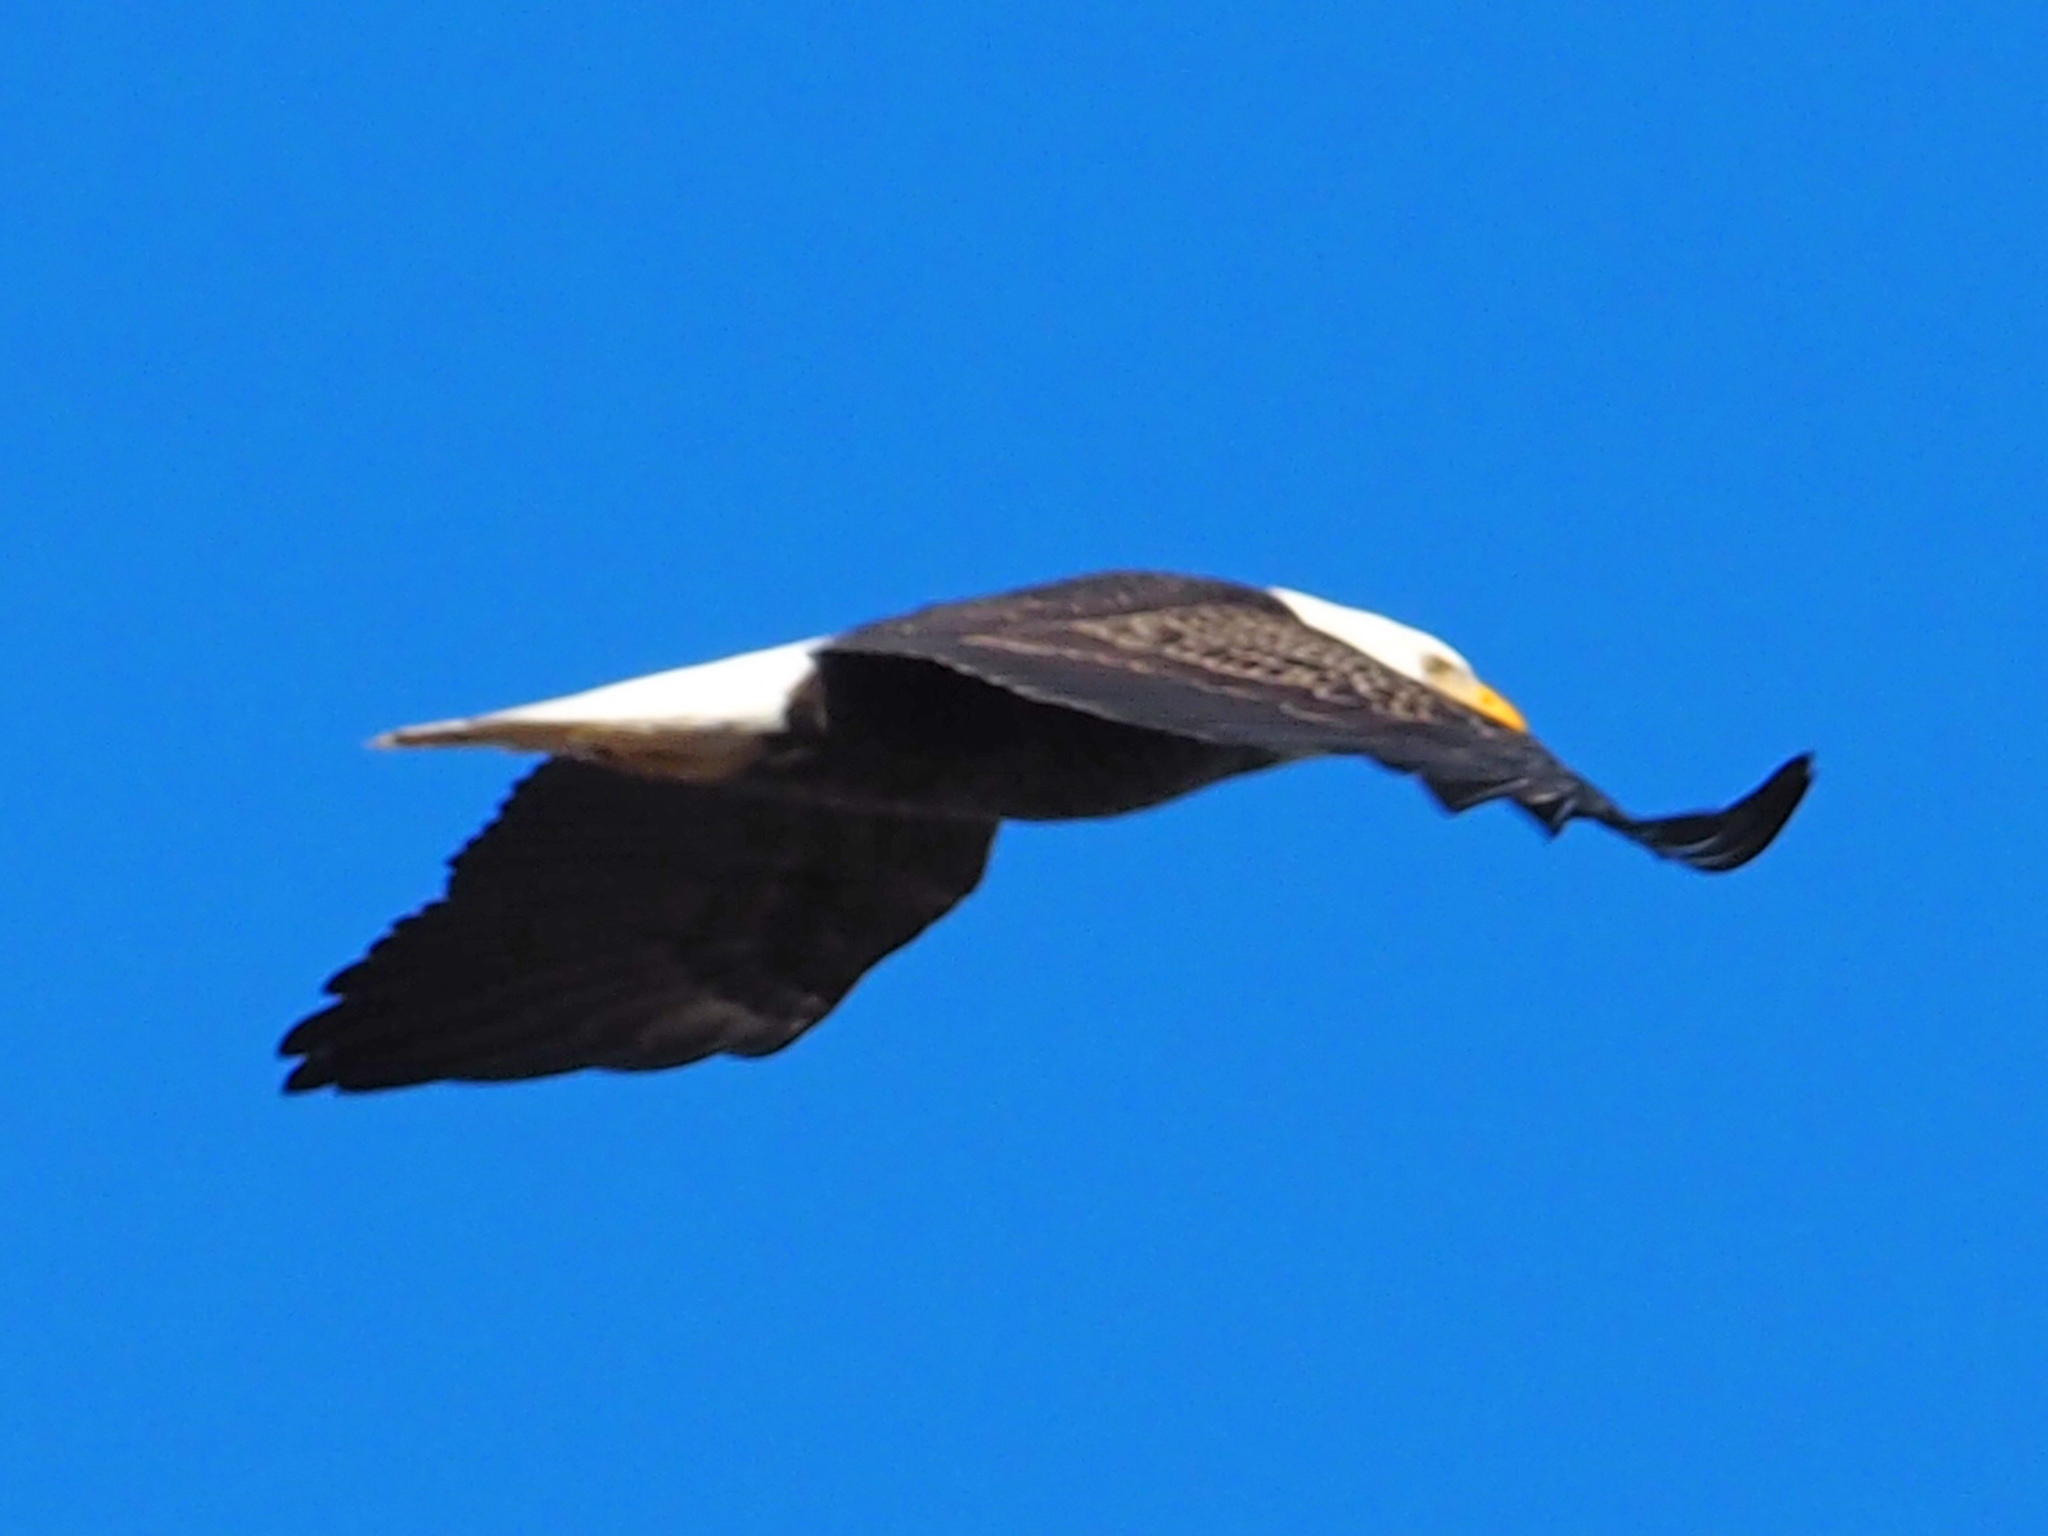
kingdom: Animalia
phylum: Chordata
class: Aves
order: Accipitriformes
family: Accipitridae
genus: Haliaeetus
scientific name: Haliaeetus leucocephalus
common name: Bald eagle
